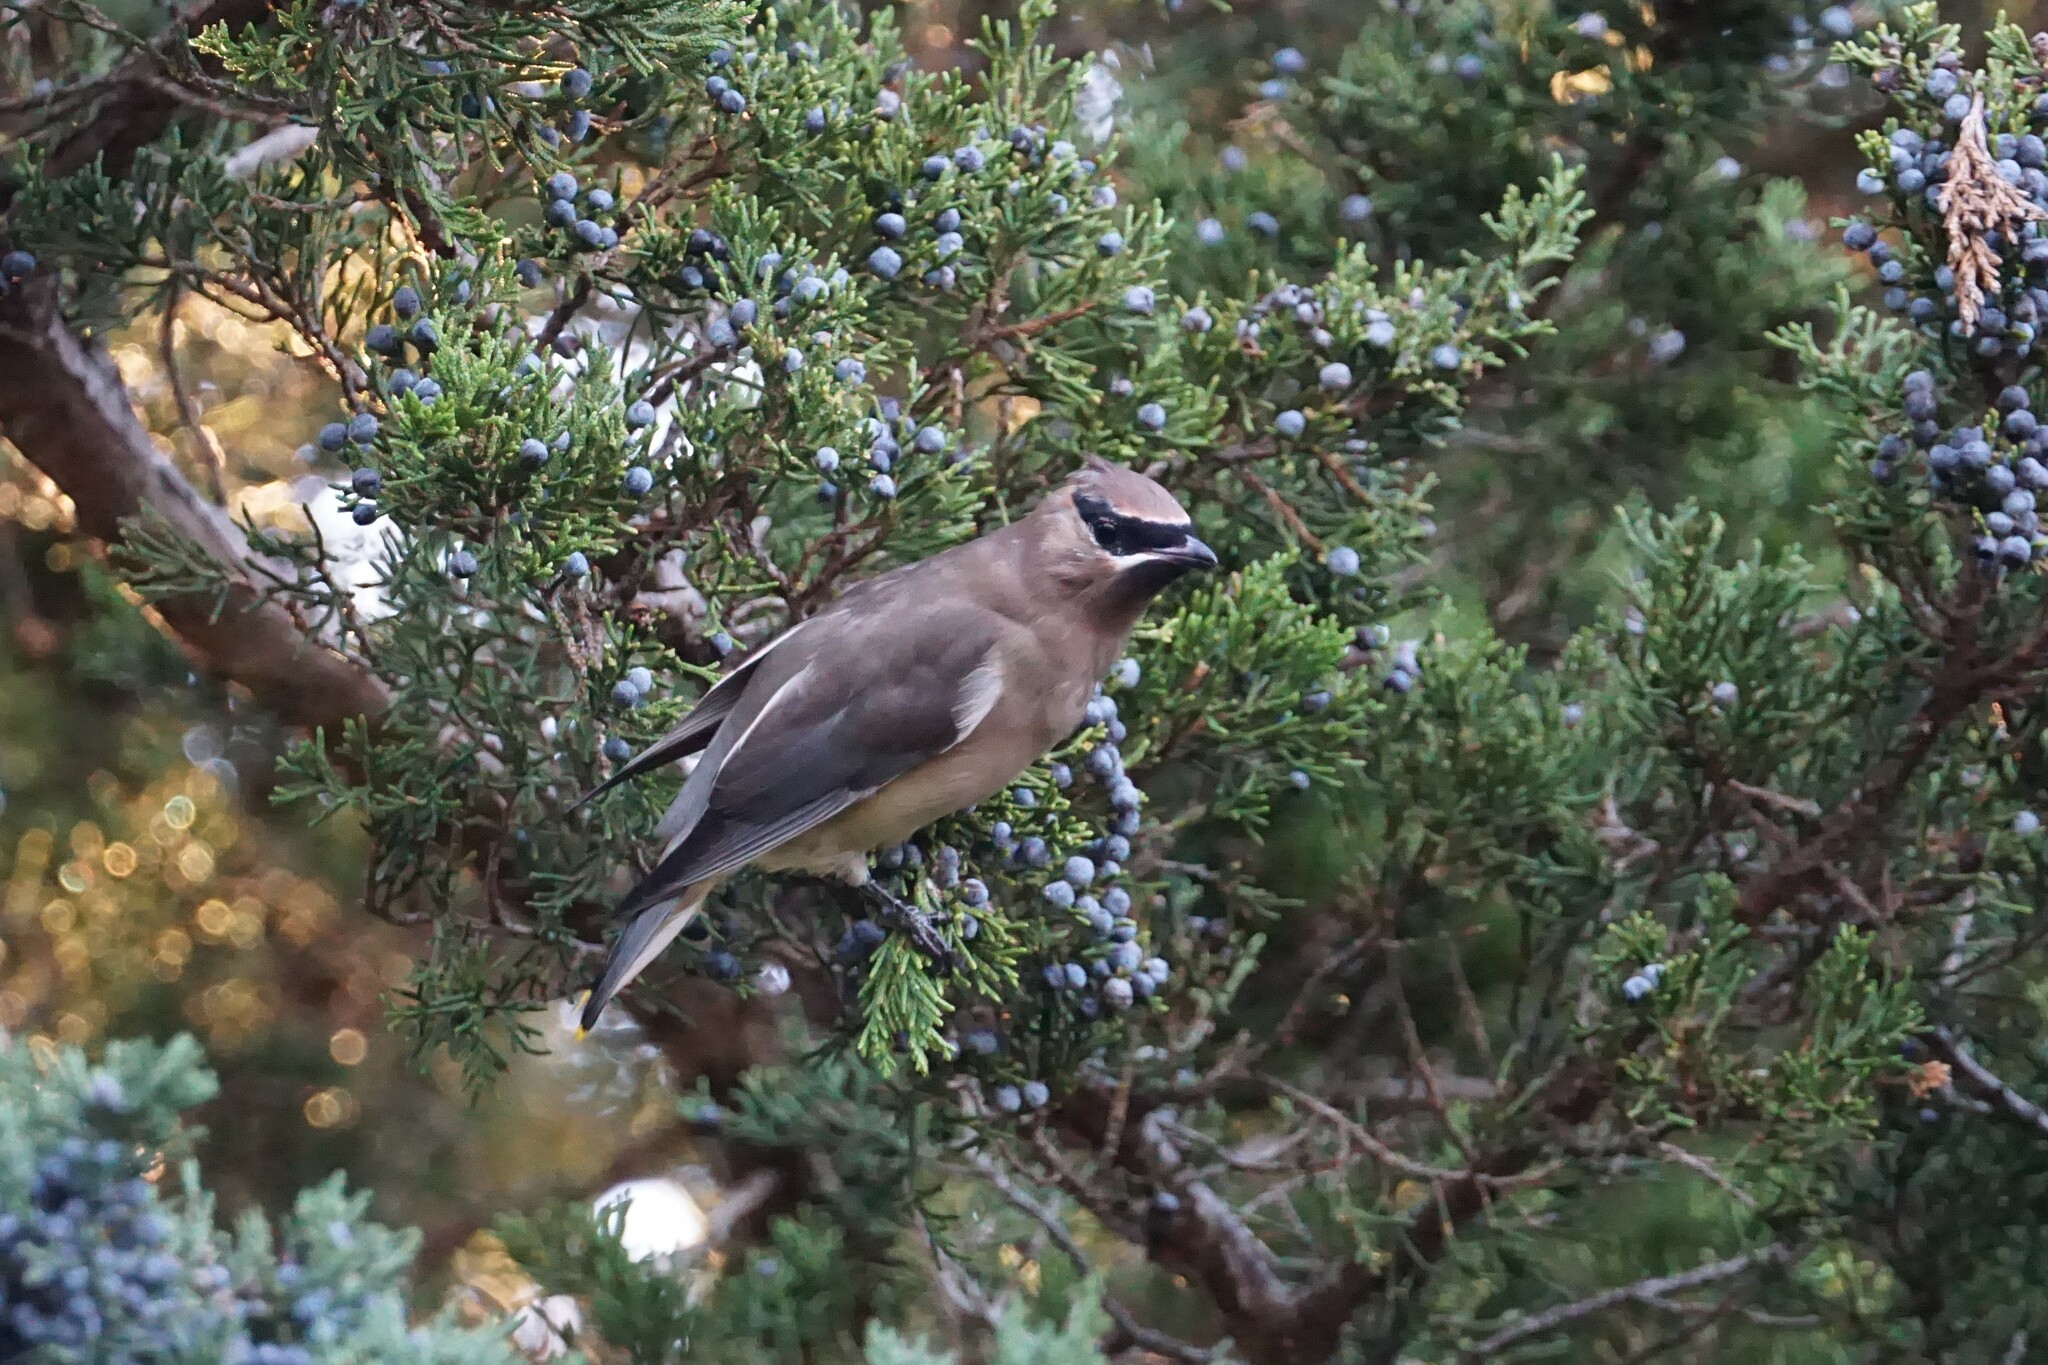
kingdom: Animalia
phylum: Chordata
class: Aves
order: Passeriformes
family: Bombycillidae
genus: Bombycilla
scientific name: Bombycilla cedrorum
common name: Cedar waxwing
